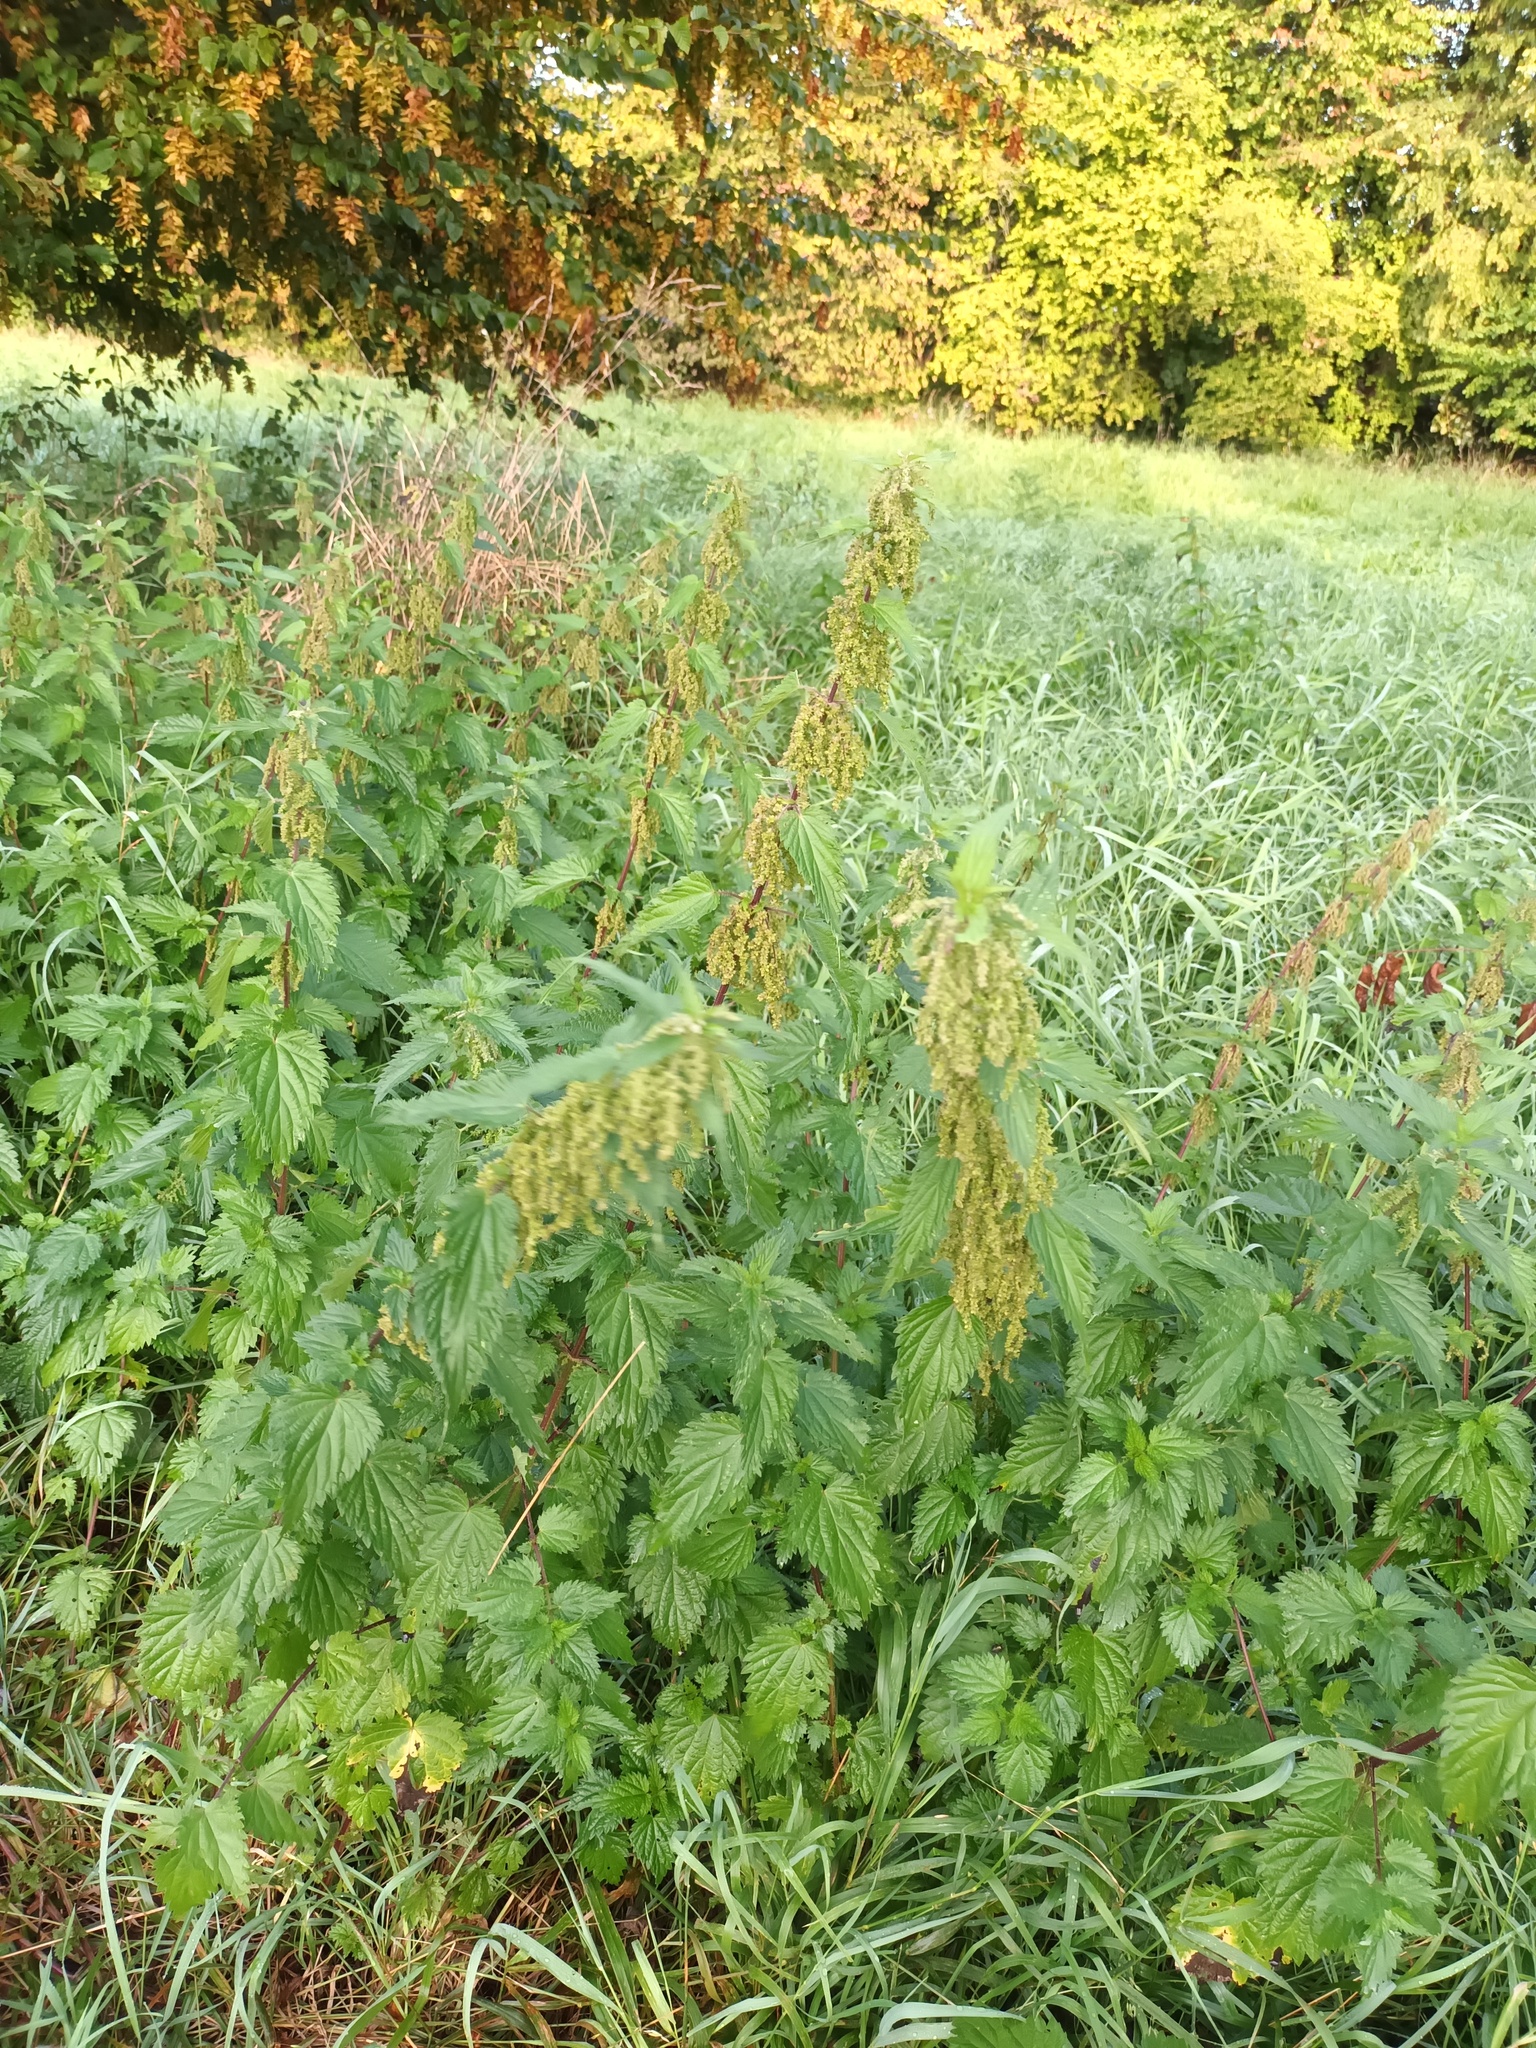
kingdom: Plantae
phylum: Tracheophyta
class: Magnoliopsida
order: Rosales
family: Urticaceae
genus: Urtica
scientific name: Urtica dioica
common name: Common nettle
